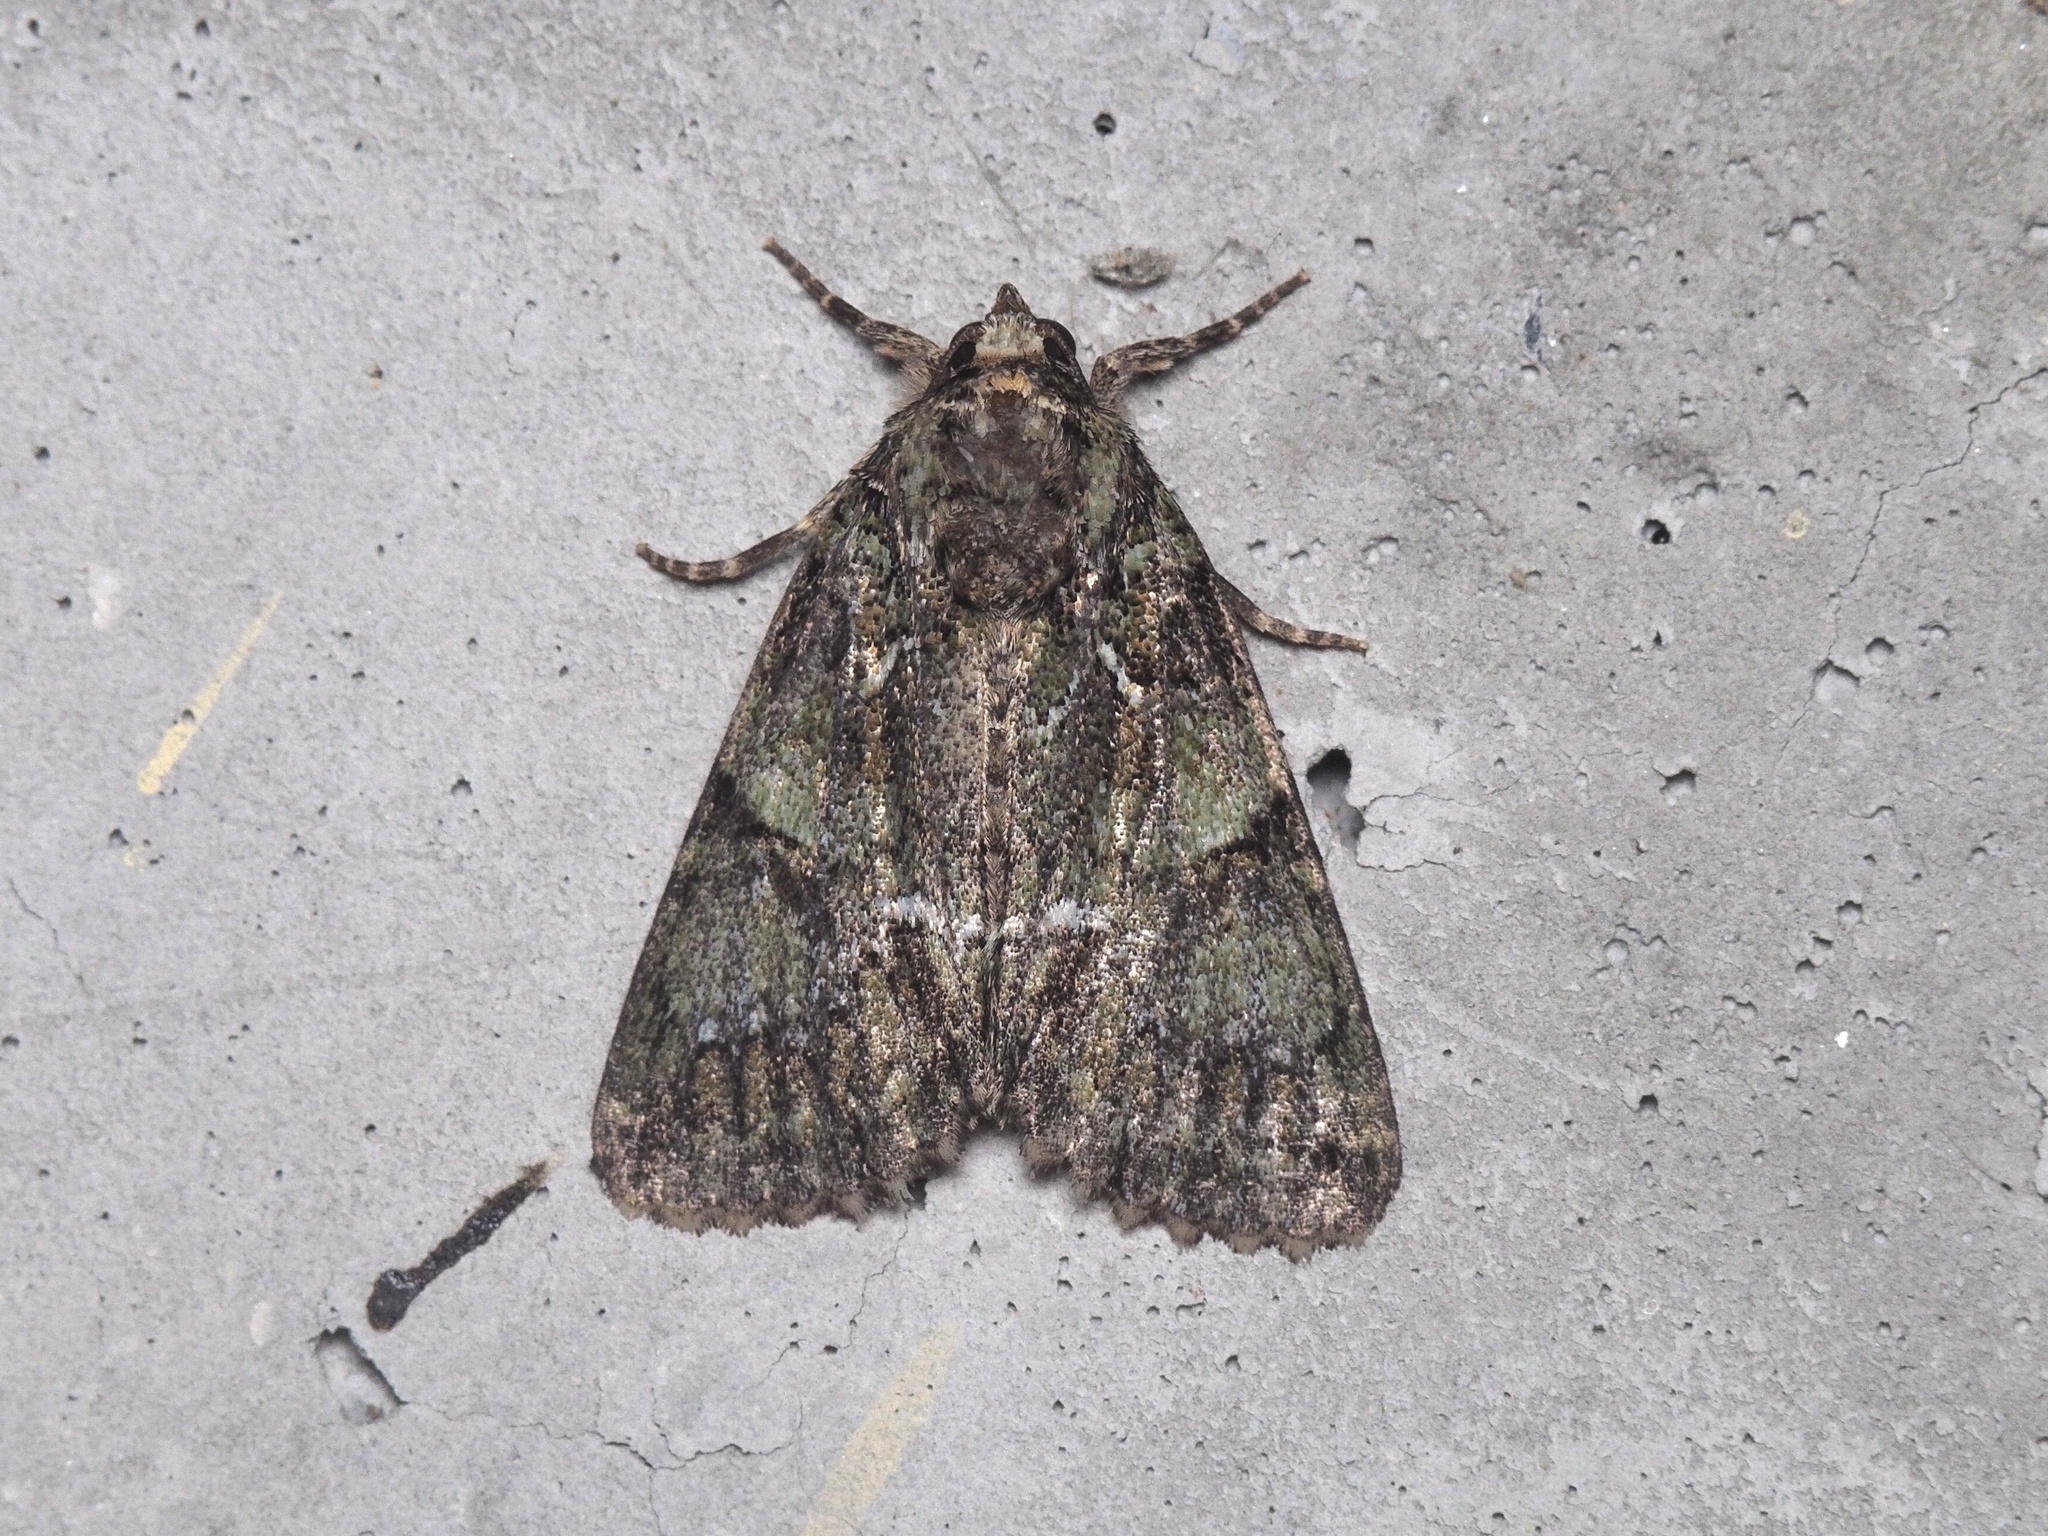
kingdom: Animalia
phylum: Arthropoda
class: Insecta
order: Lepidoptera
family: Noctuidae
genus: Polyphaenis
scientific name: Polyphaenis sericata
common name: Guernsey underwing
